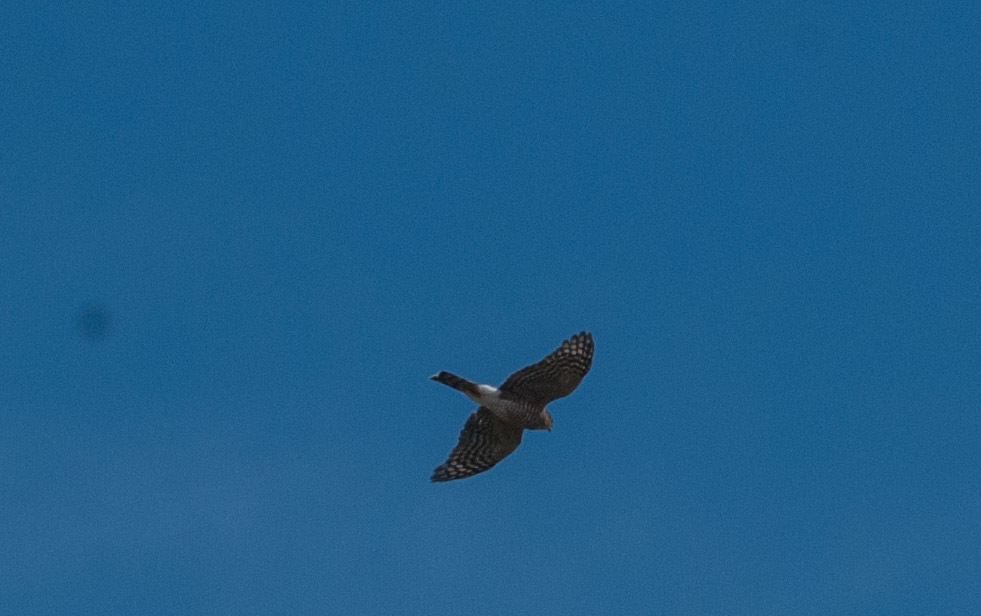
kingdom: Animalia
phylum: Chordata
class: Aves
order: Accipitriformes
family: Accipitridae
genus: Accipiter
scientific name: Accipiter striatus
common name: Sharp-shinned hawk
